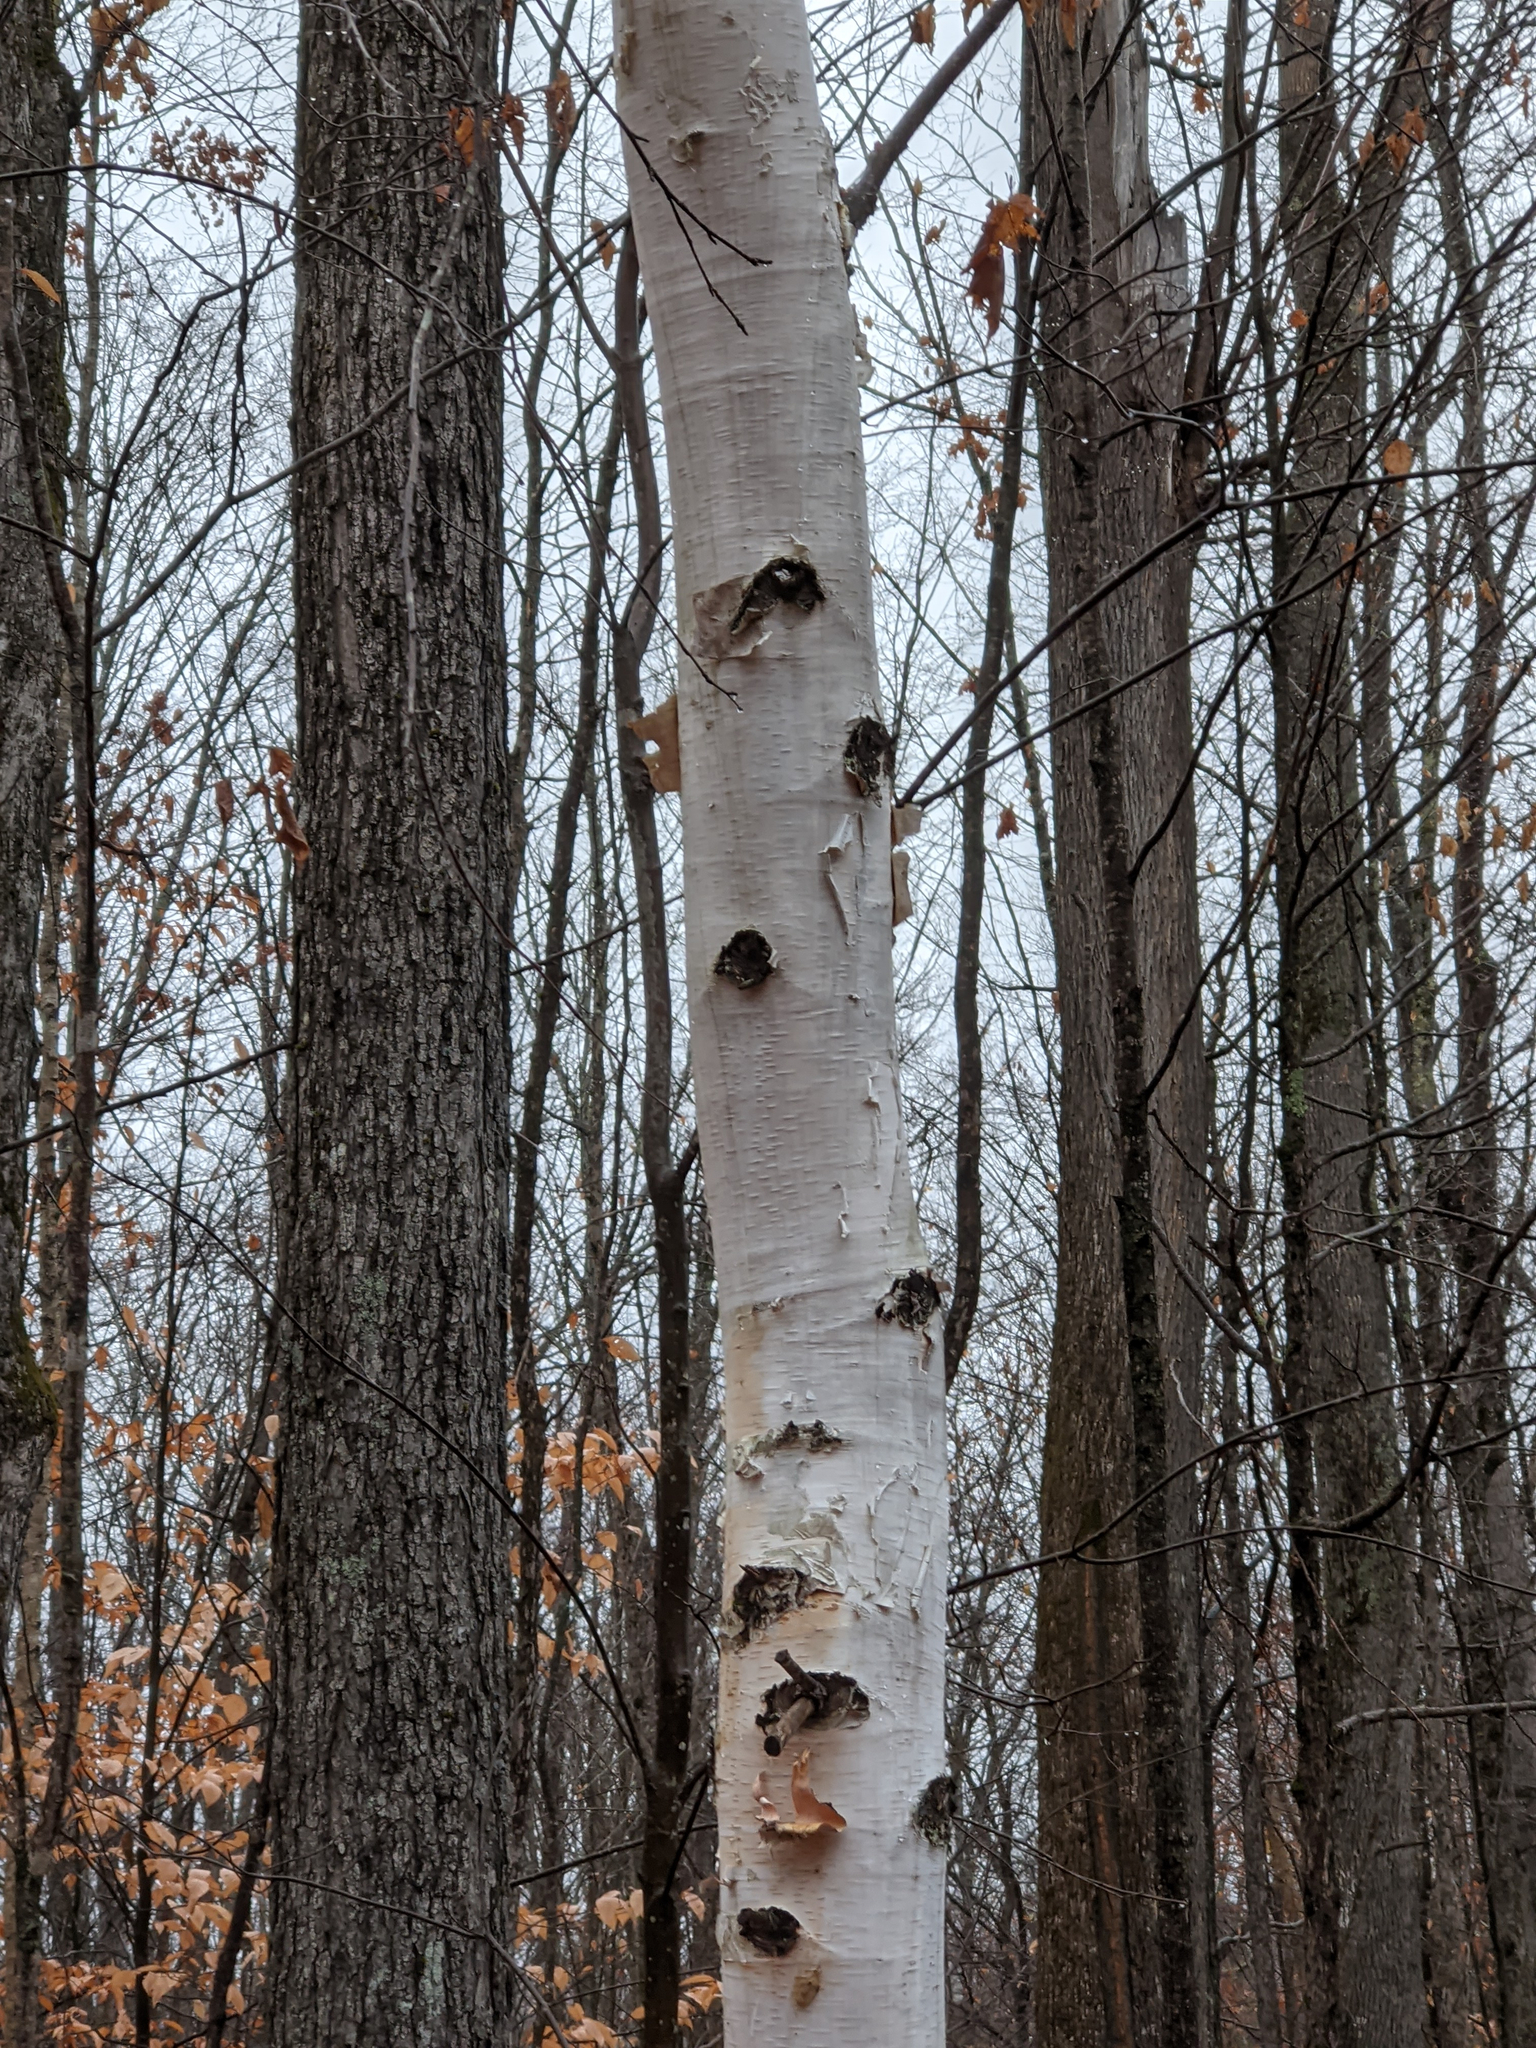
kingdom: Plantae
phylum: Tracheophyta
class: Magnoliopsida
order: Fagales
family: Betulaceae
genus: Betula
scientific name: Betula papyrifera
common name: Paper birch
